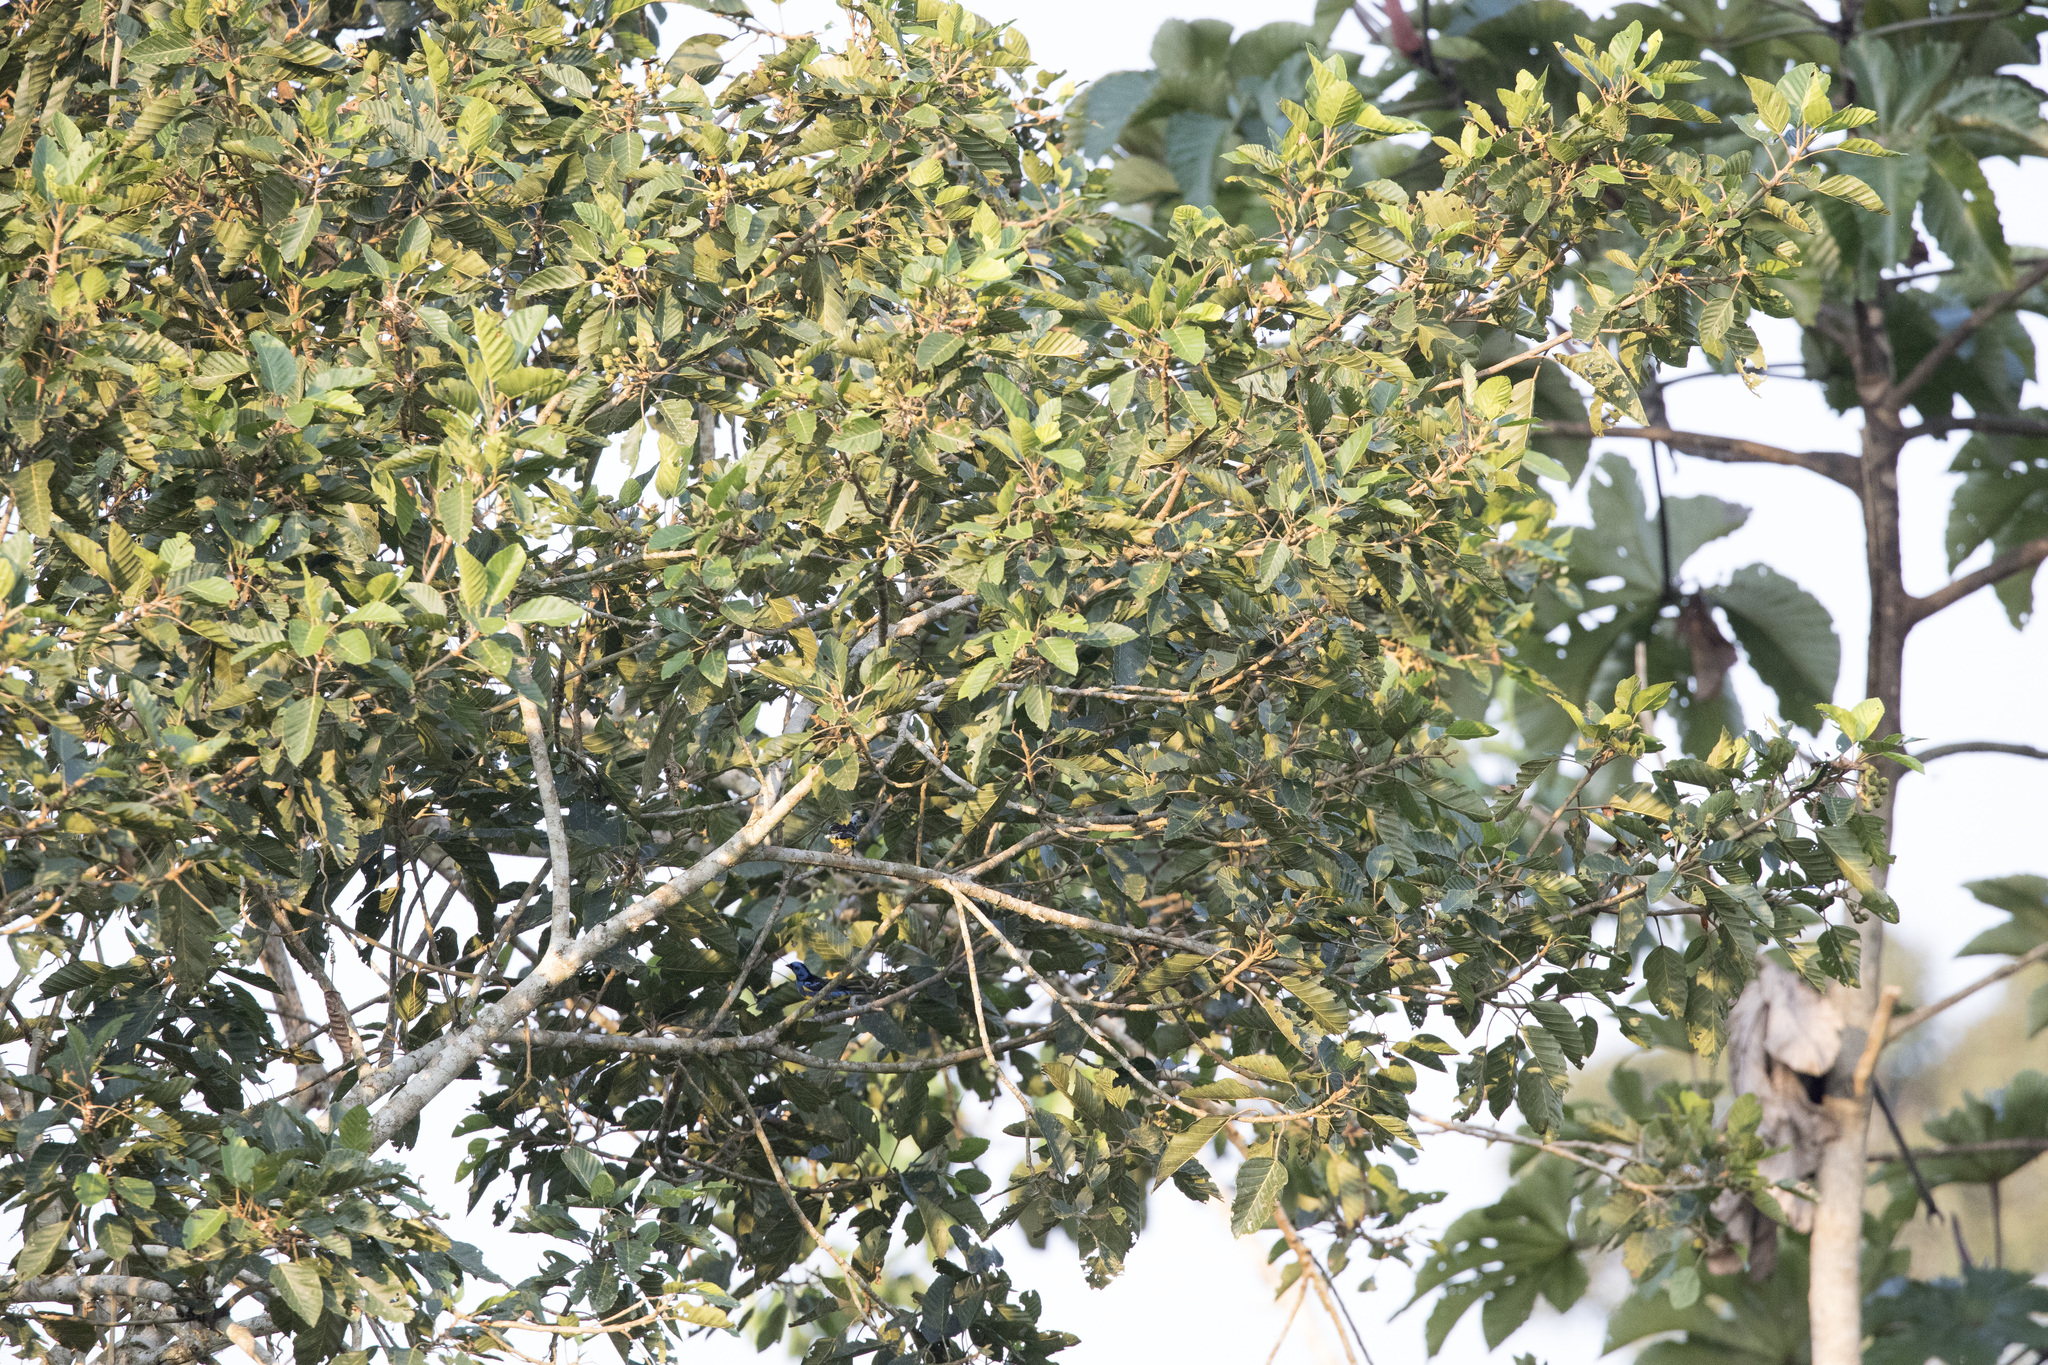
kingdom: Animalia
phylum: Chordata
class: Aves
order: Passeriformes
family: Thraupidae
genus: Tangara
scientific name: Tangara mexicana
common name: Turquoise tanager
